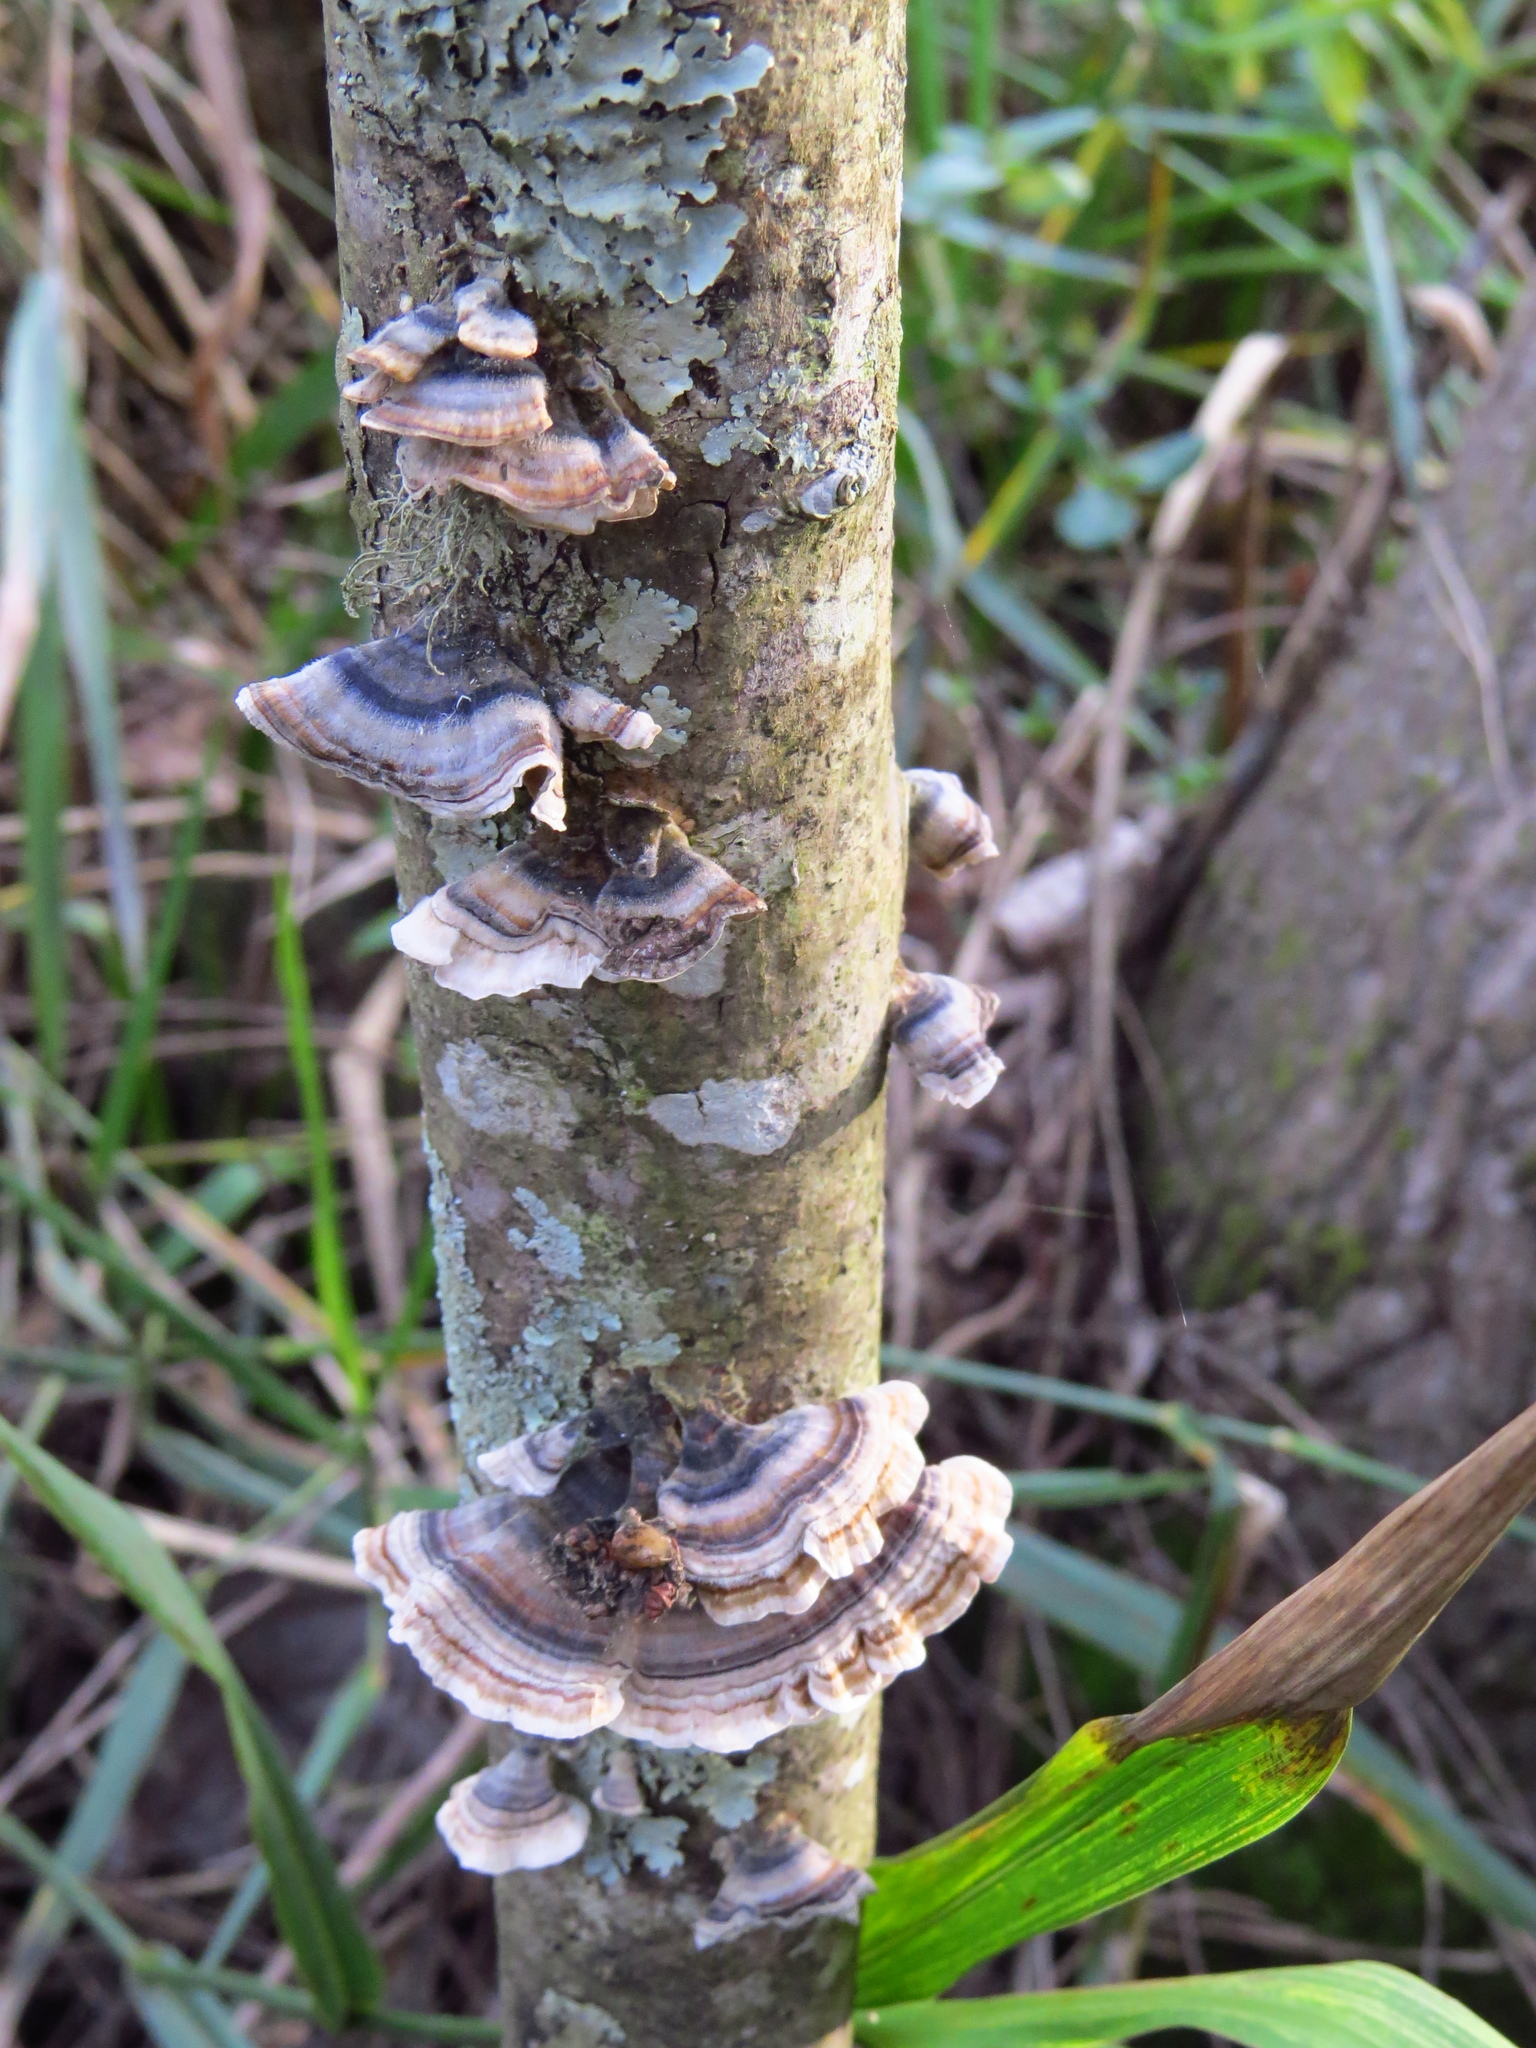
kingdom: Fungi
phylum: Basidiomycota
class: Agaricomycetes
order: Polyporales
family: Polyporaceae
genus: Trametes
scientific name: Trametes versicolor
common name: Turkeytail
